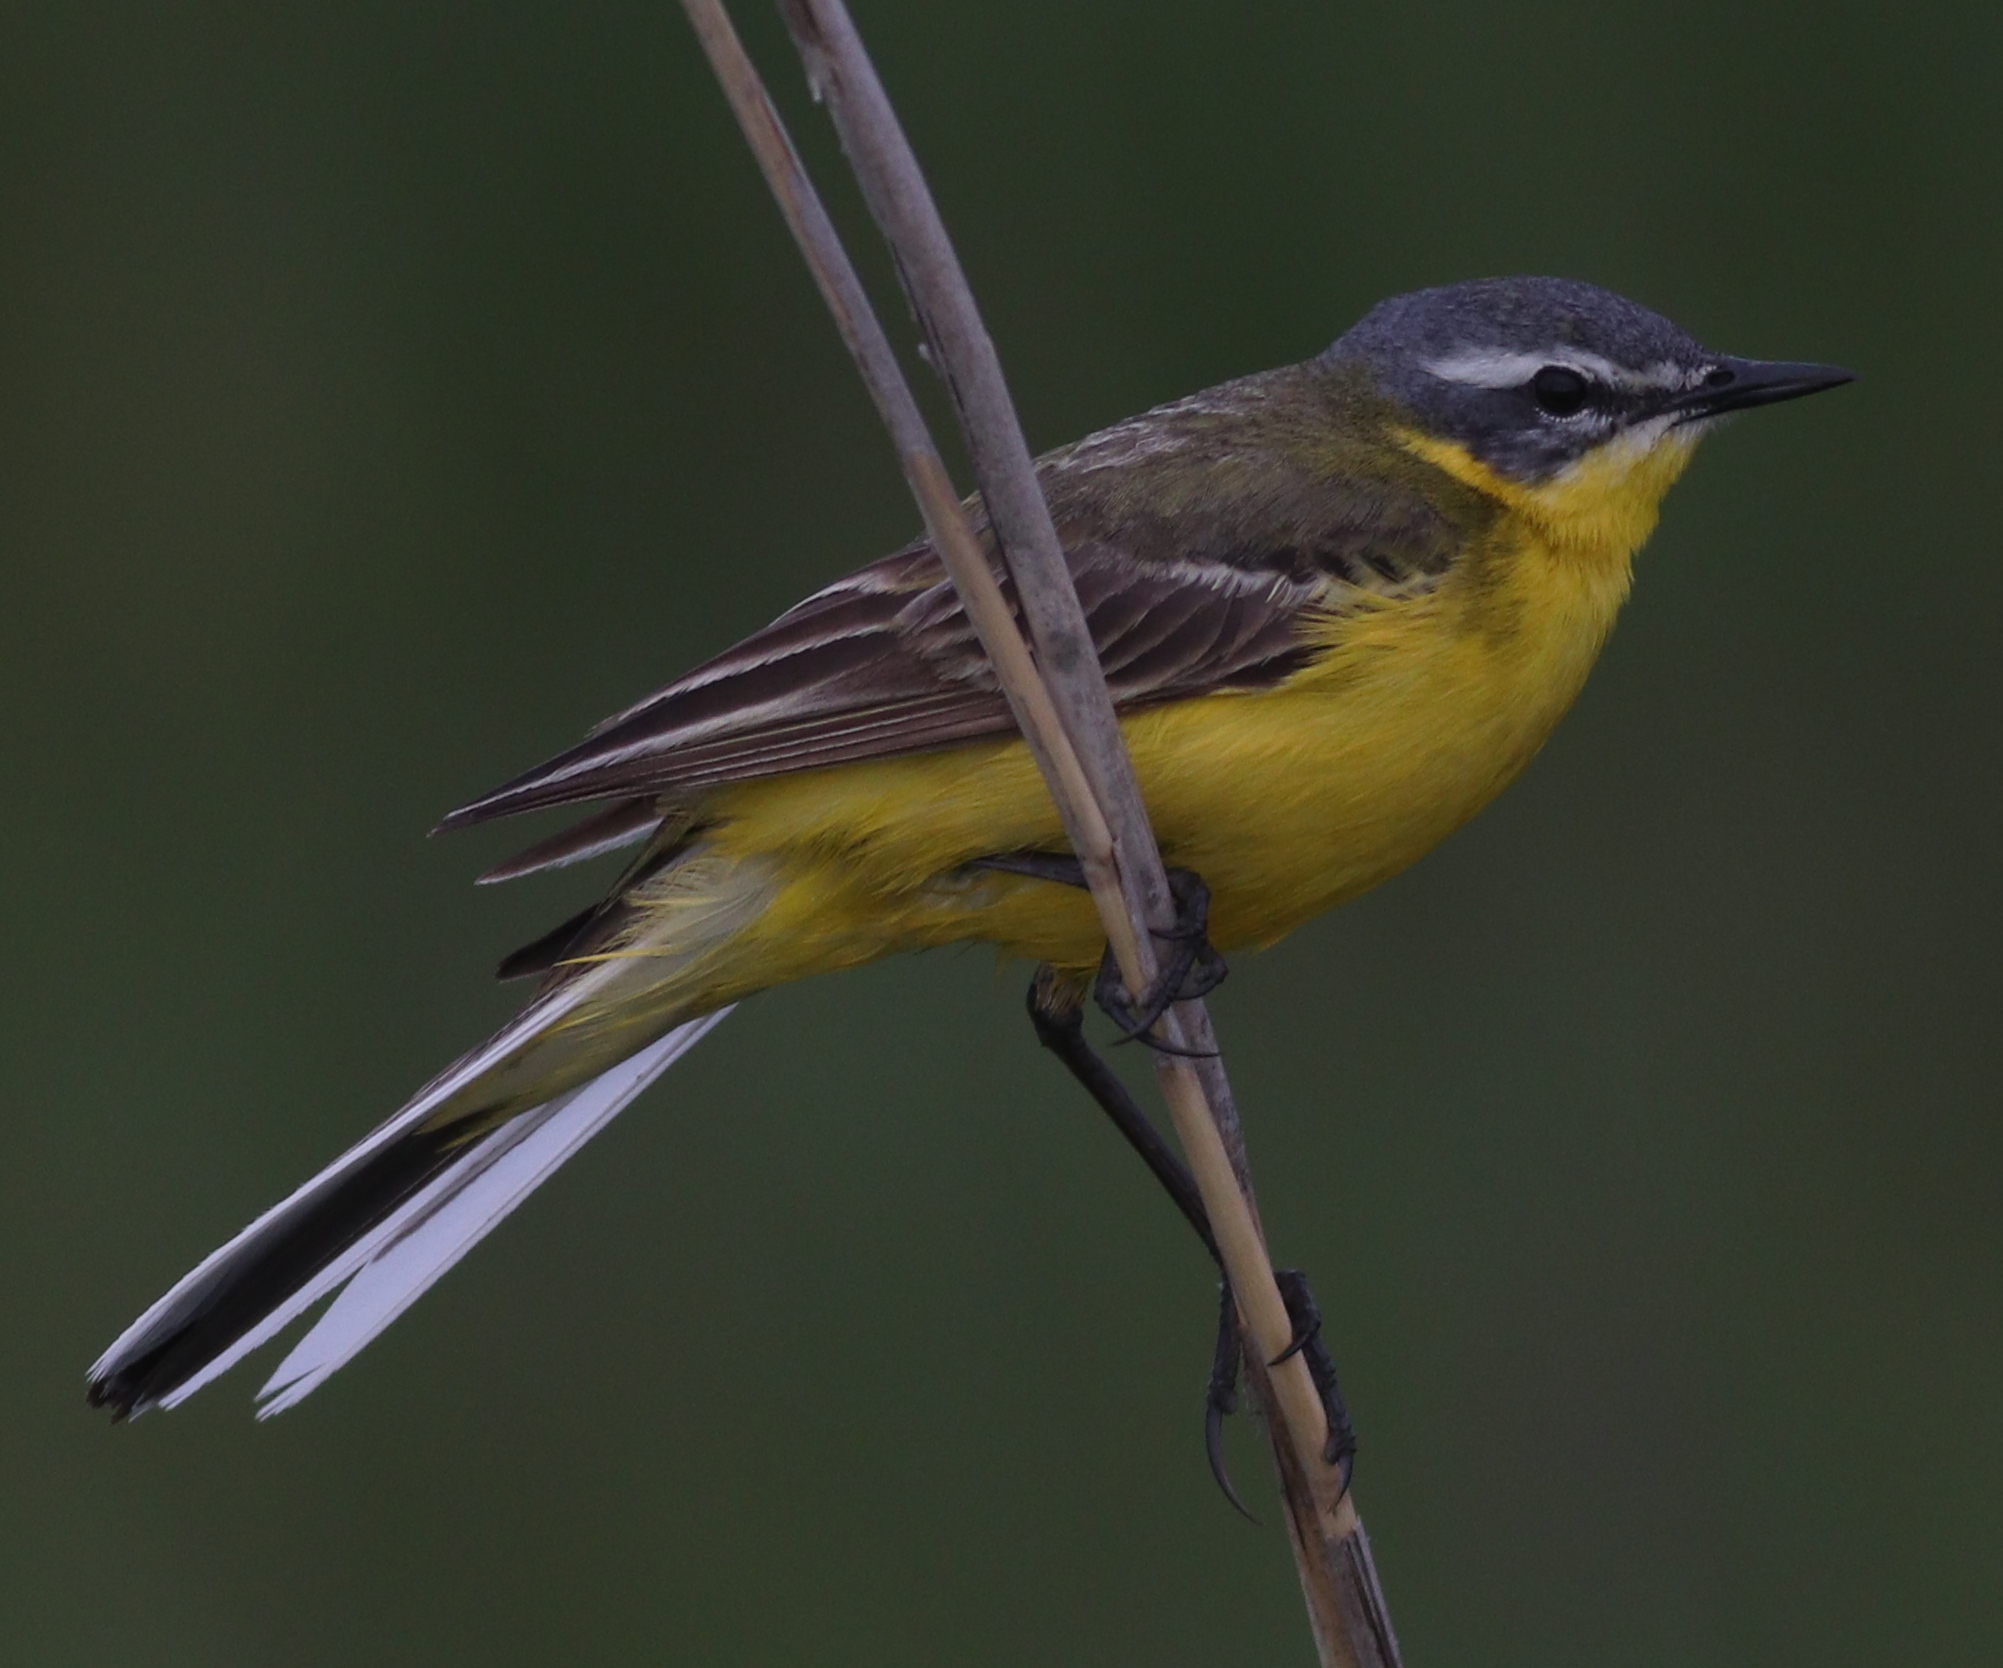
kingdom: Animalia
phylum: Chordata
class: Aves
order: Passeriformes
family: Motacillidae
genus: Motacilla
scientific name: Motacilla flava
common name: Western yellow wagtail
